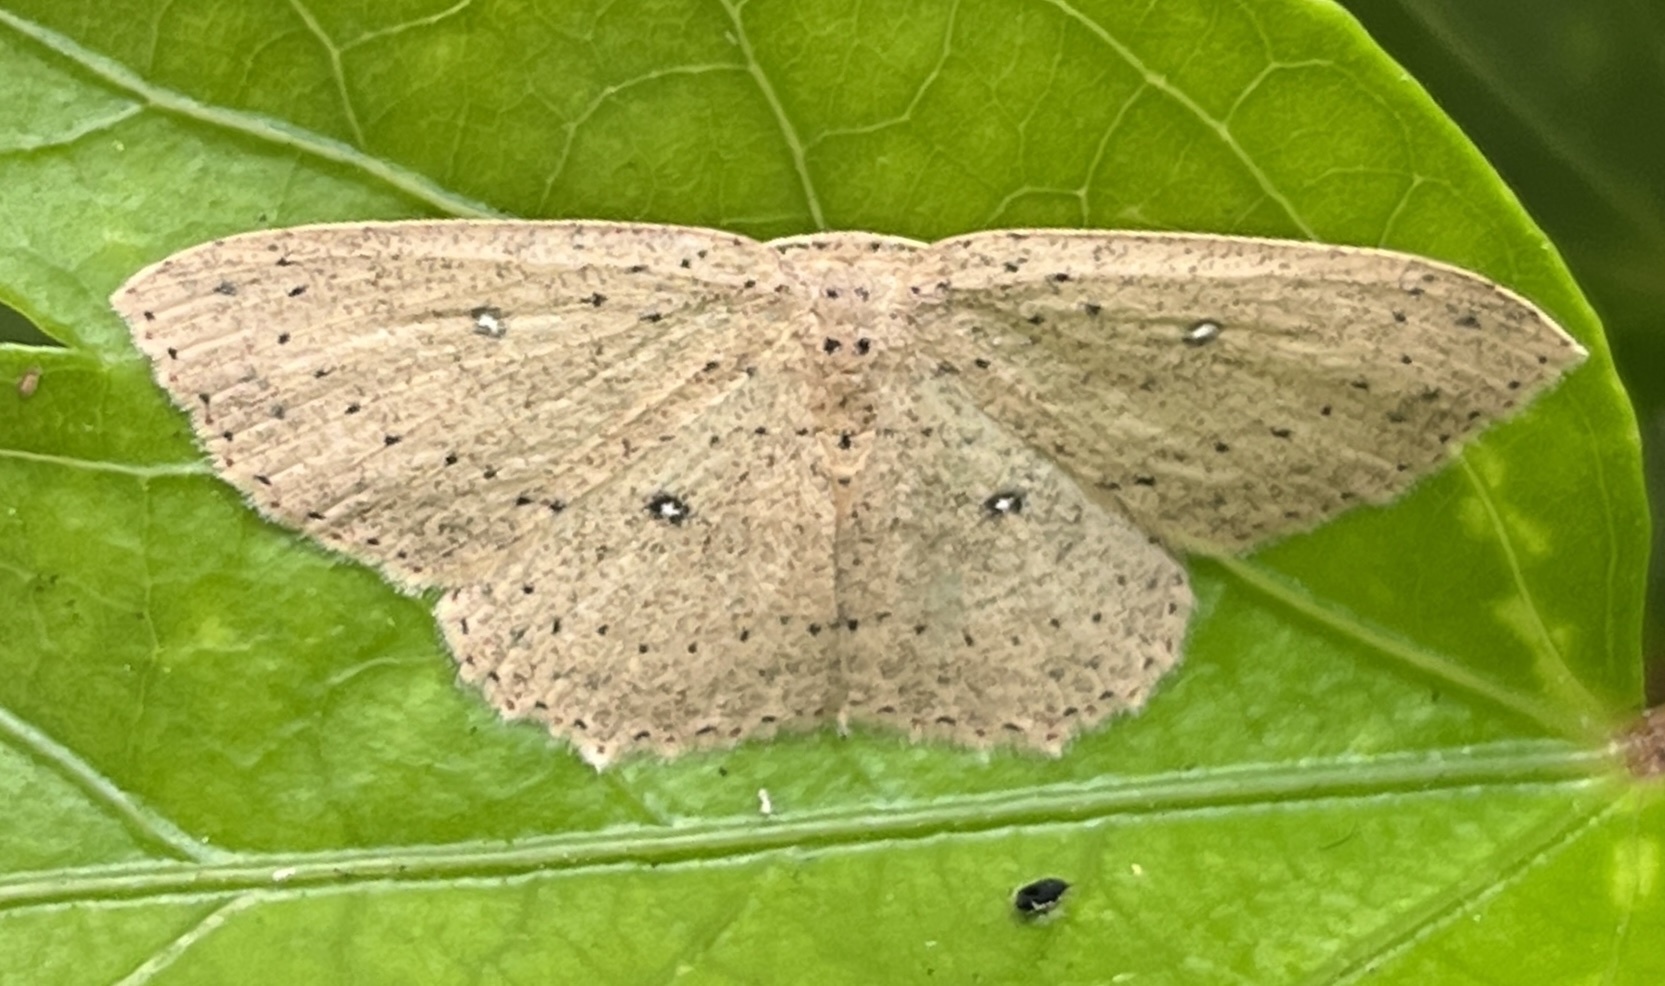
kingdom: Animalia
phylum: Arthropoda
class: Insecta
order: Lepidoptera
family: Geometridae
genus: Cyclophora
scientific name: Cyclophora myrtaria
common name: Waxmyrtle wave moth
